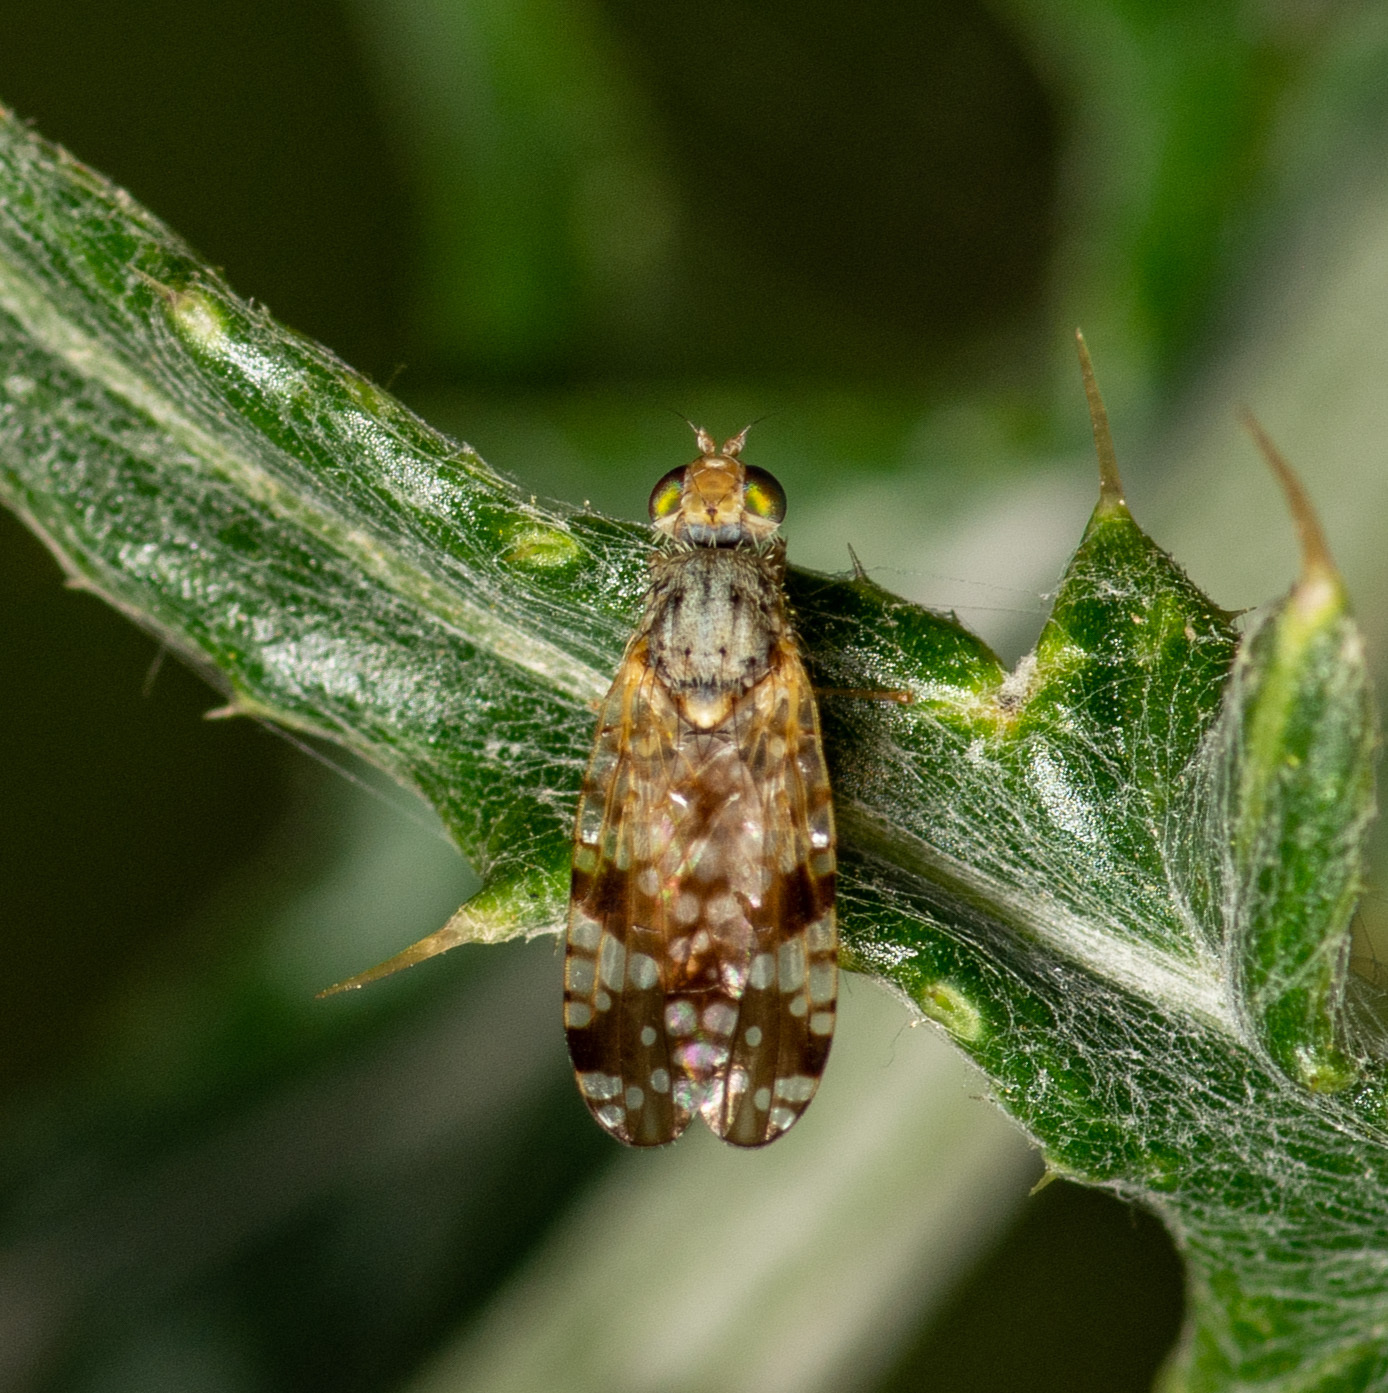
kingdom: Animalia
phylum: Arthropoda
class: Insecta
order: Diptera
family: Tephritidae
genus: Neotephritis
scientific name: Neotephritis finalis
